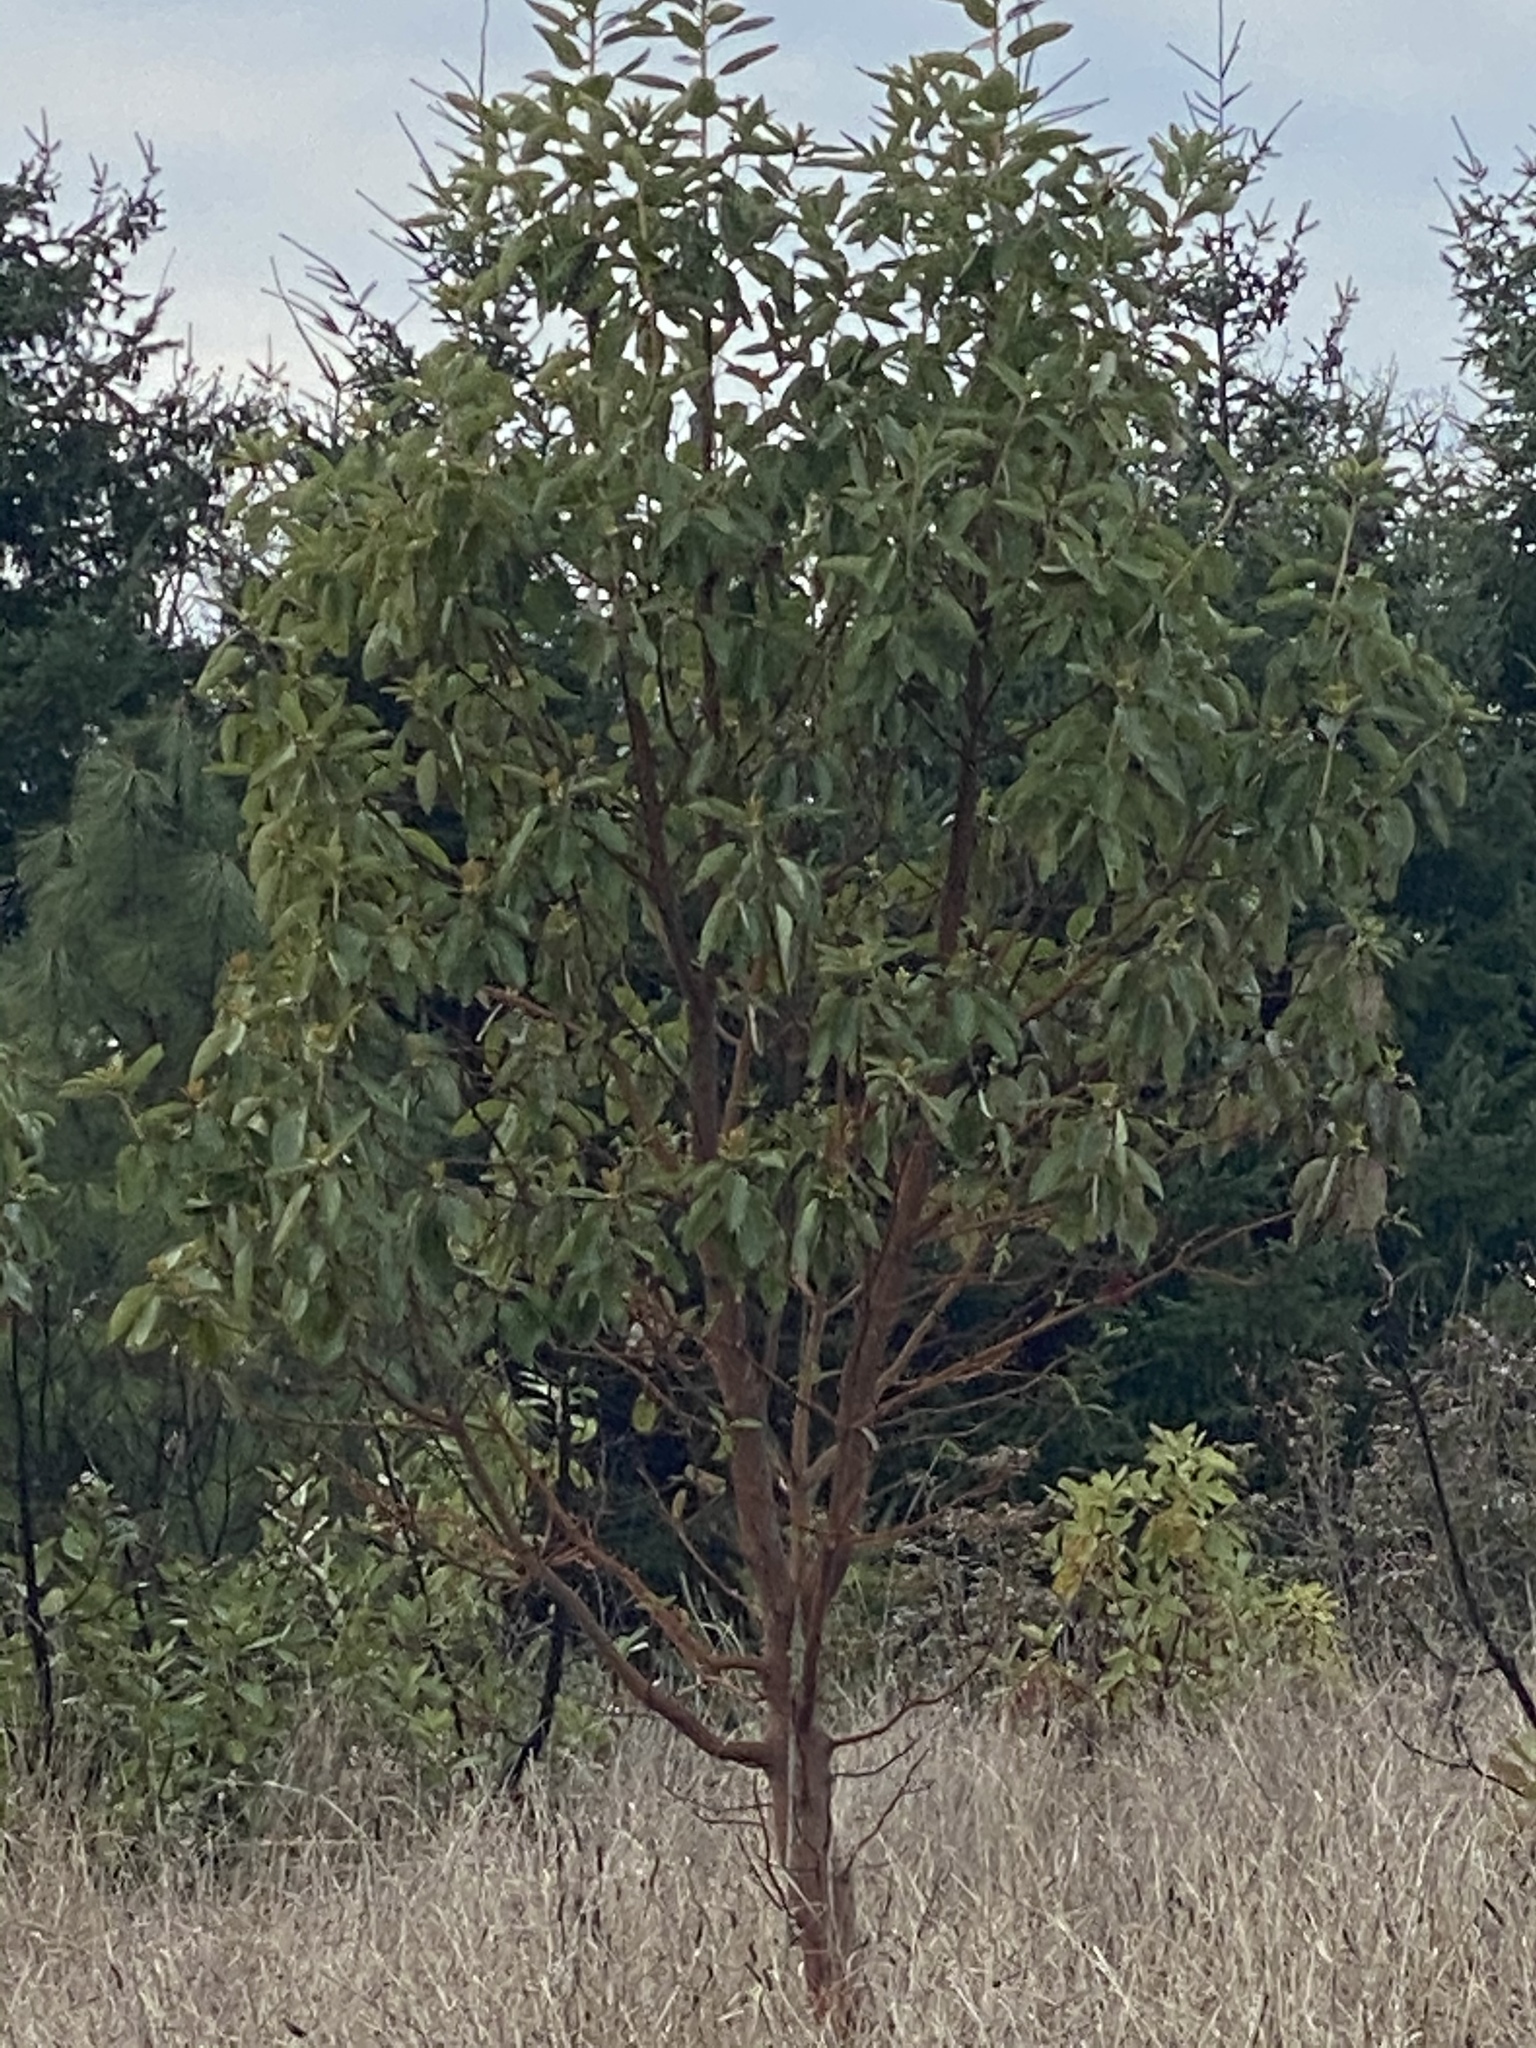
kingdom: Plantae
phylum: Tracheophyta
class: Magnoliopsida
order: Ericales
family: Ericaceae
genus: Arbutus
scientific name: Arbutus menziesii
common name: Pacific madrone
